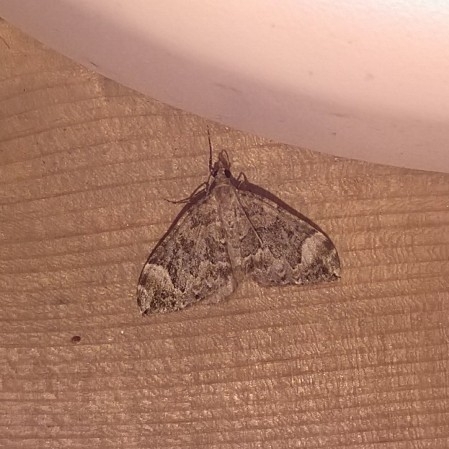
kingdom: Animalia
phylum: Arthropoda
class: Insecta
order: Lepidoptera
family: Geometridae
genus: Dysstroma
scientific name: Dysstroma citrata
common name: Dark marbled carpet
